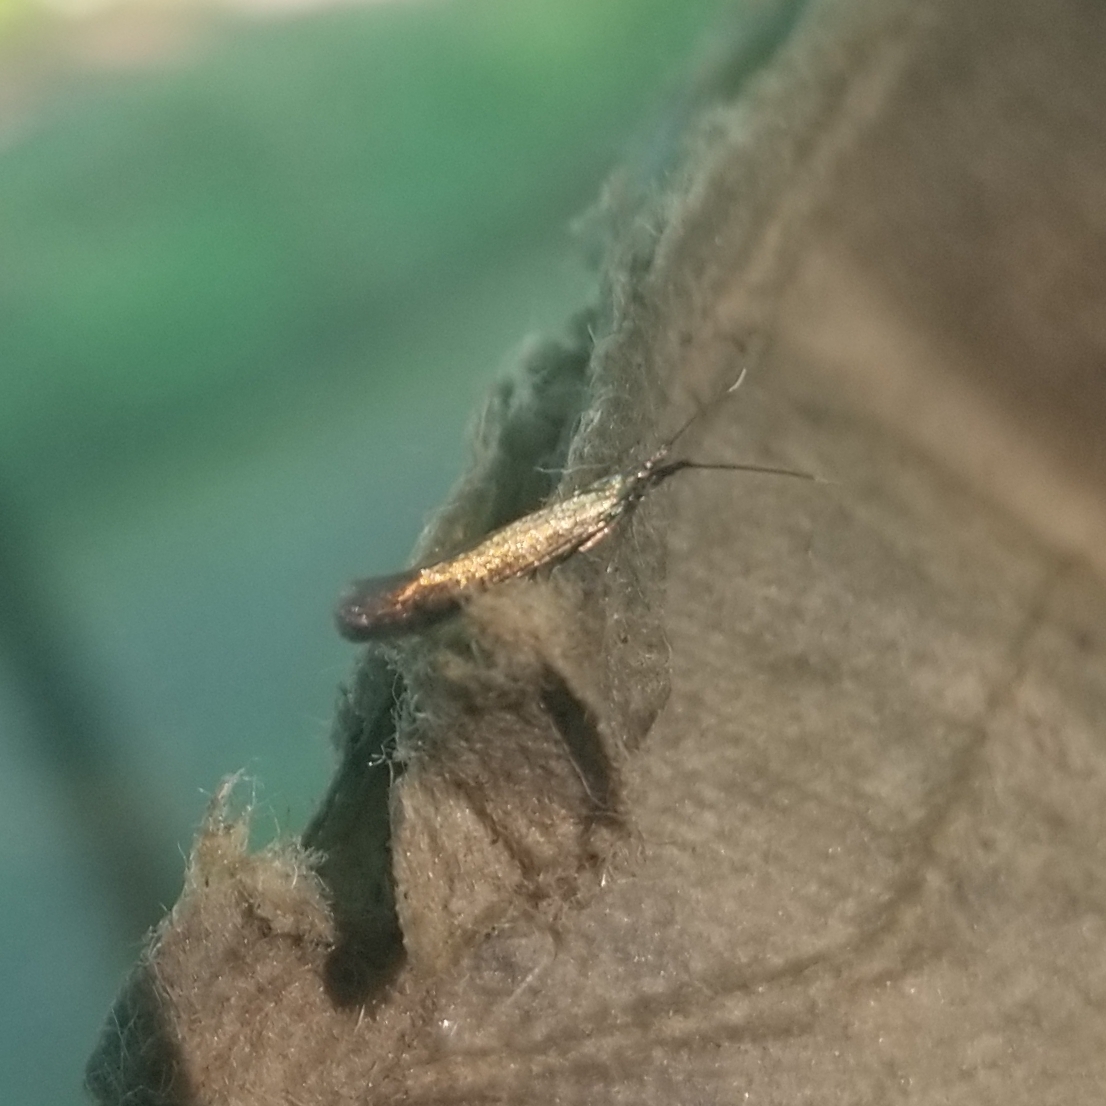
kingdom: Animalia
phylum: Arthropoda
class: Insecta
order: Lepidoptera
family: Coleophoridae
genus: Coleophora
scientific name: Coleophora mayrella
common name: Meadow case-bearer
